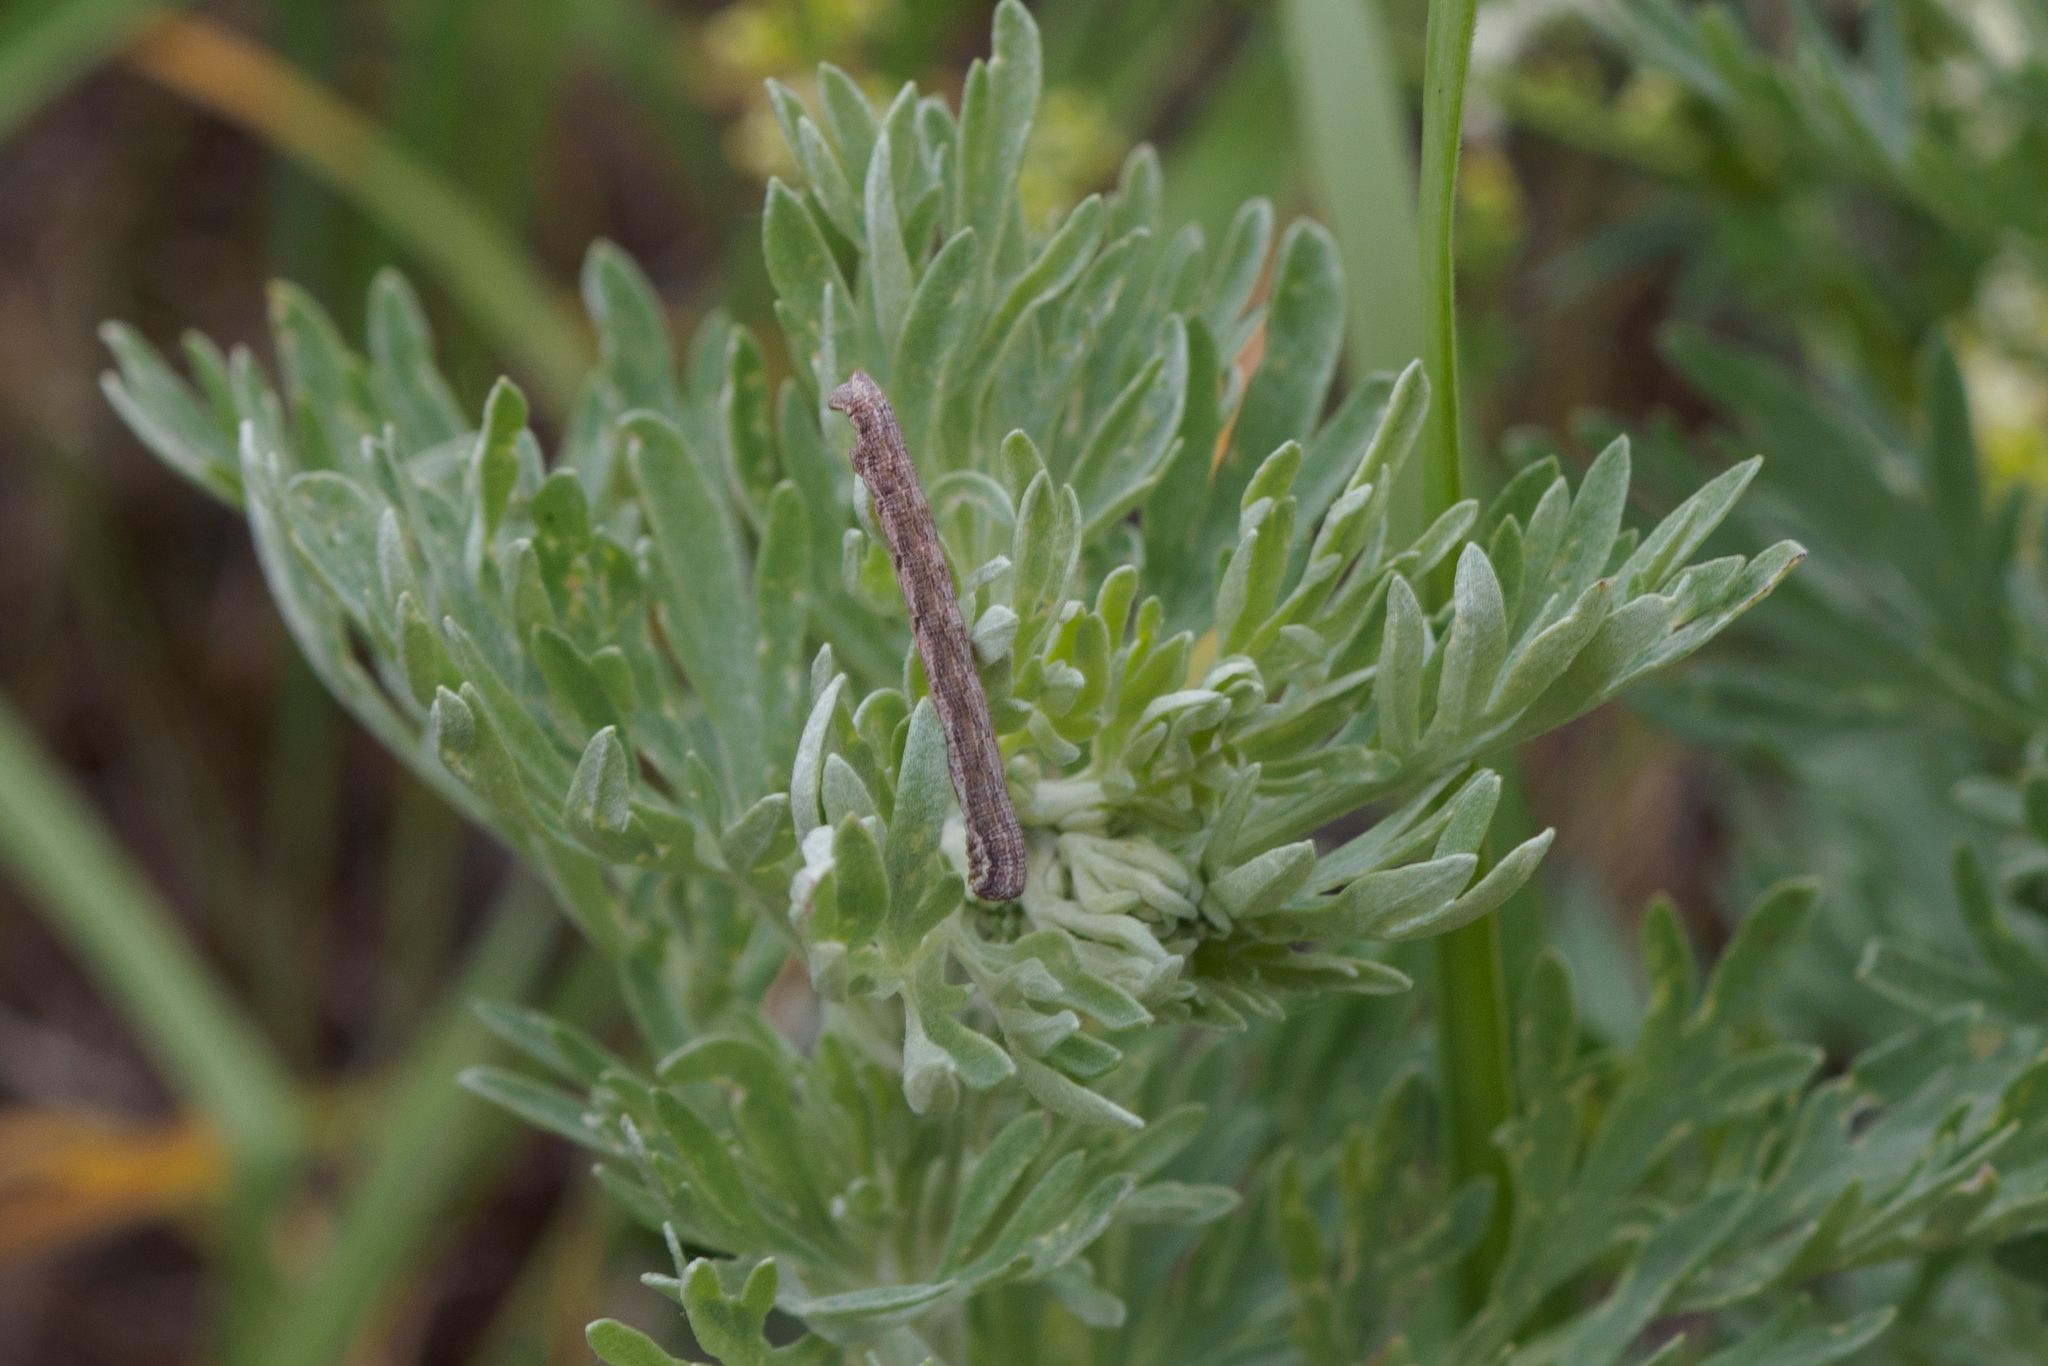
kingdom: Plantae
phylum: Tracheophyta
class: Magnoliopsida
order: Asterales
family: Asteraceae
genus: Artemisia
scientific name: Artemisia absinthium
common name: Wormwood
